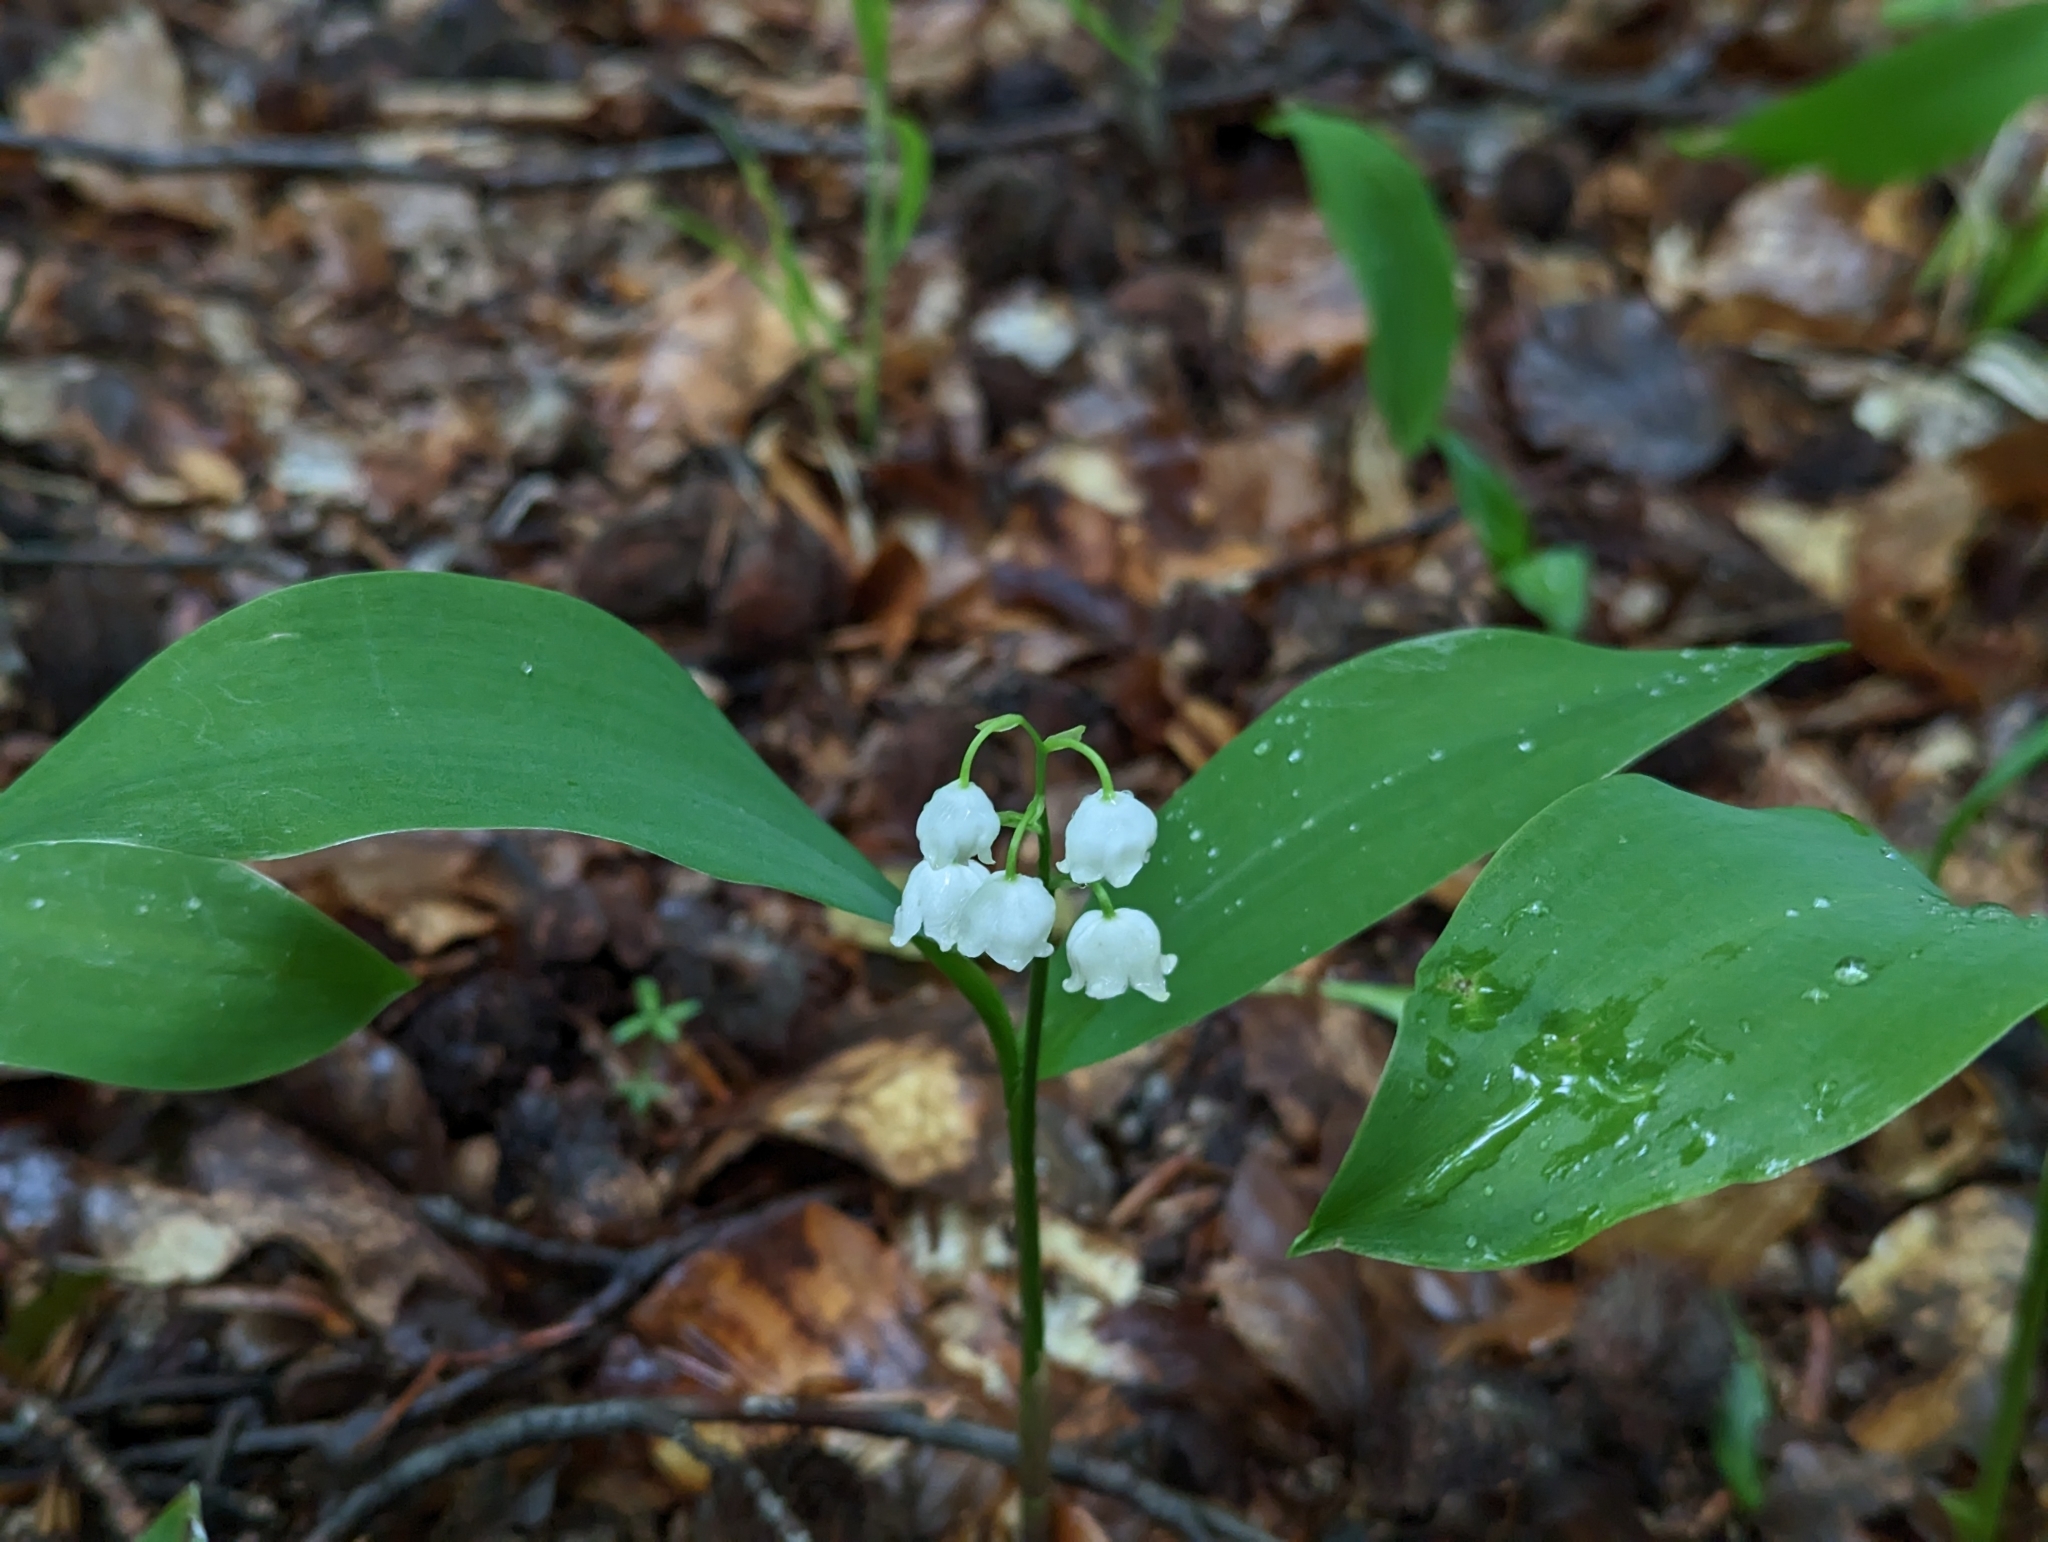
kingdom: Plantae
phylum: Tracheophyta
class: Liliopsida
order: Asparagales
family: Asparagaceae
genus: Convallaria
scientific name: Convallaria majalis
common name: Lily-of-the-valley
